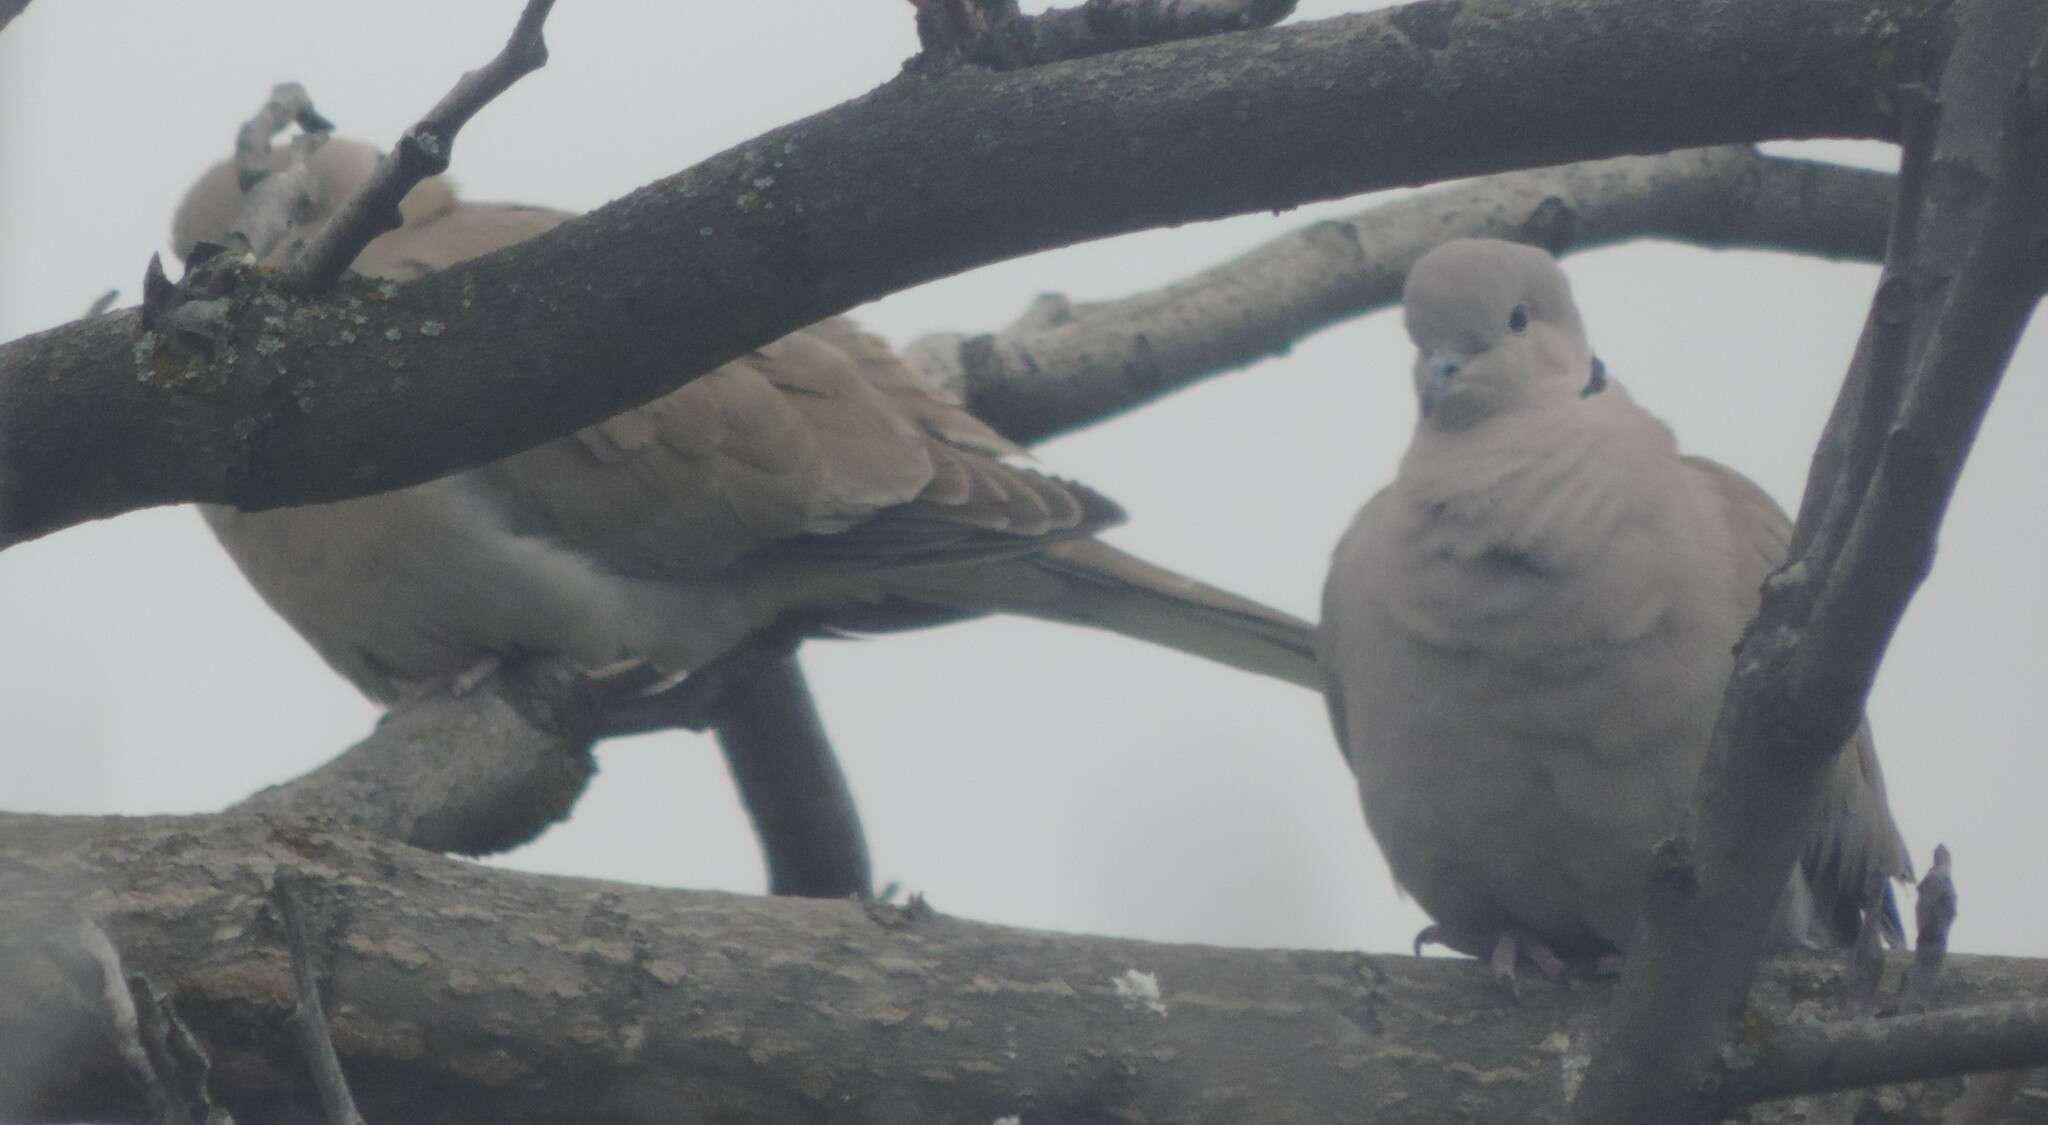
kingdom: Animalia
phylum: Chordata
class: Aves
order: Columbiformes
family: Columbidae
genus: Streptopelia
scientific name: Streptopelia decaocto
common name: Eurasian collared dove
